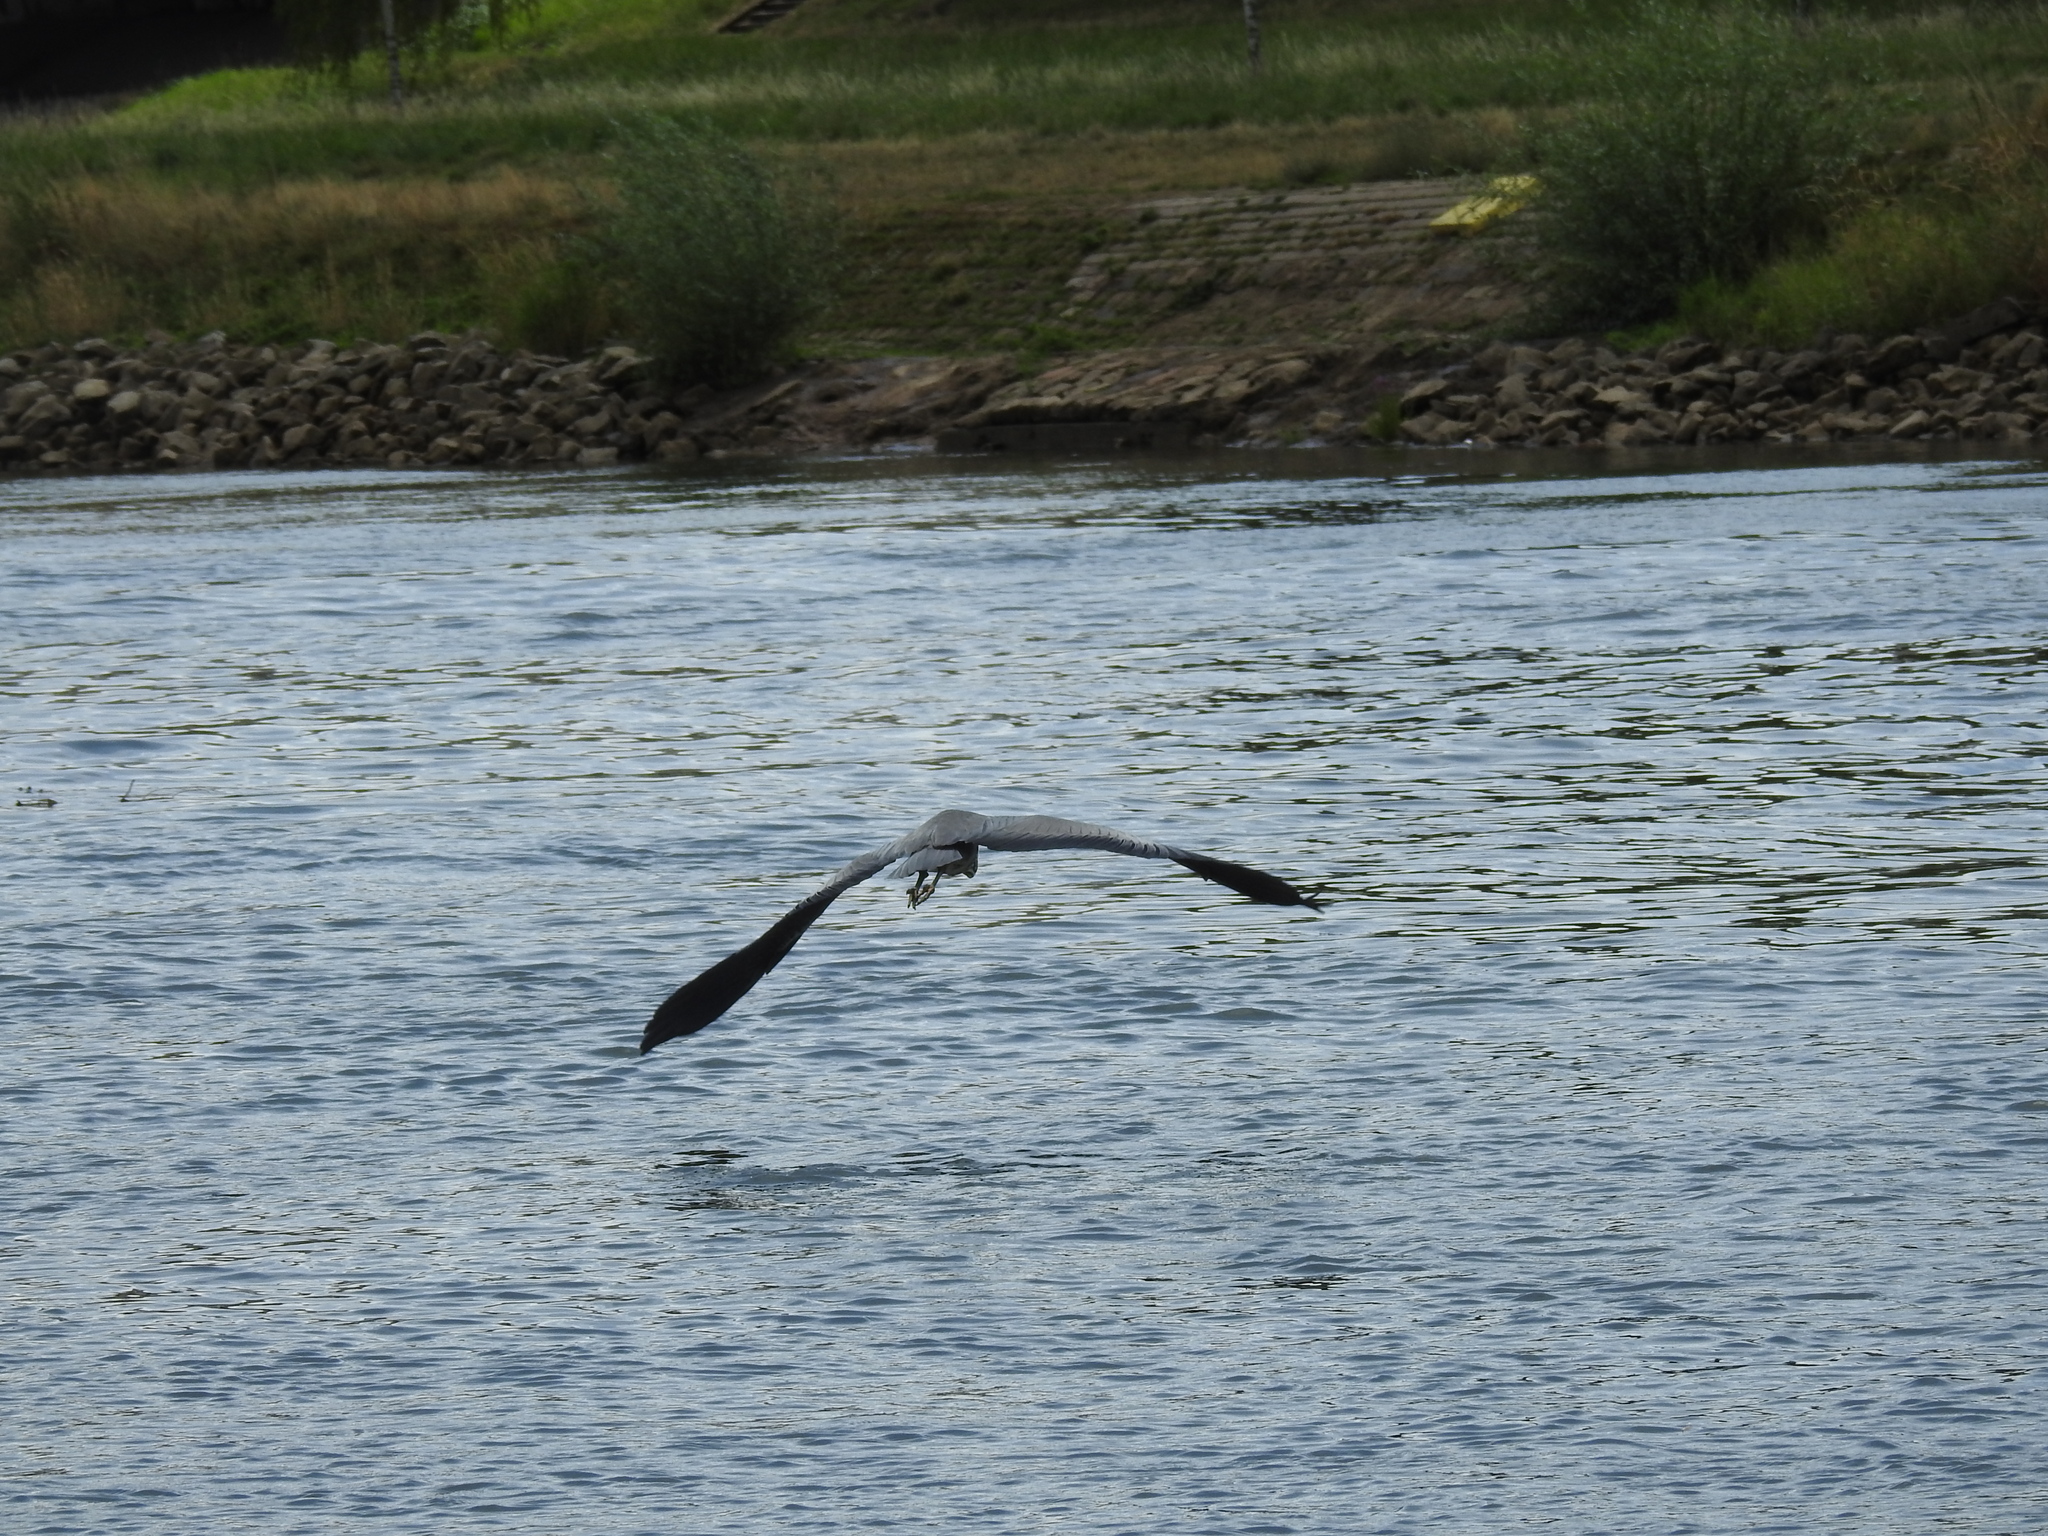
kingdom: Animalia
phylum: Chordata
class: Aves
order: Pelecaniformes
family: Ardeidae
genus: Ardea
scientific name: Ardea cinerea
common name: Grey heron
